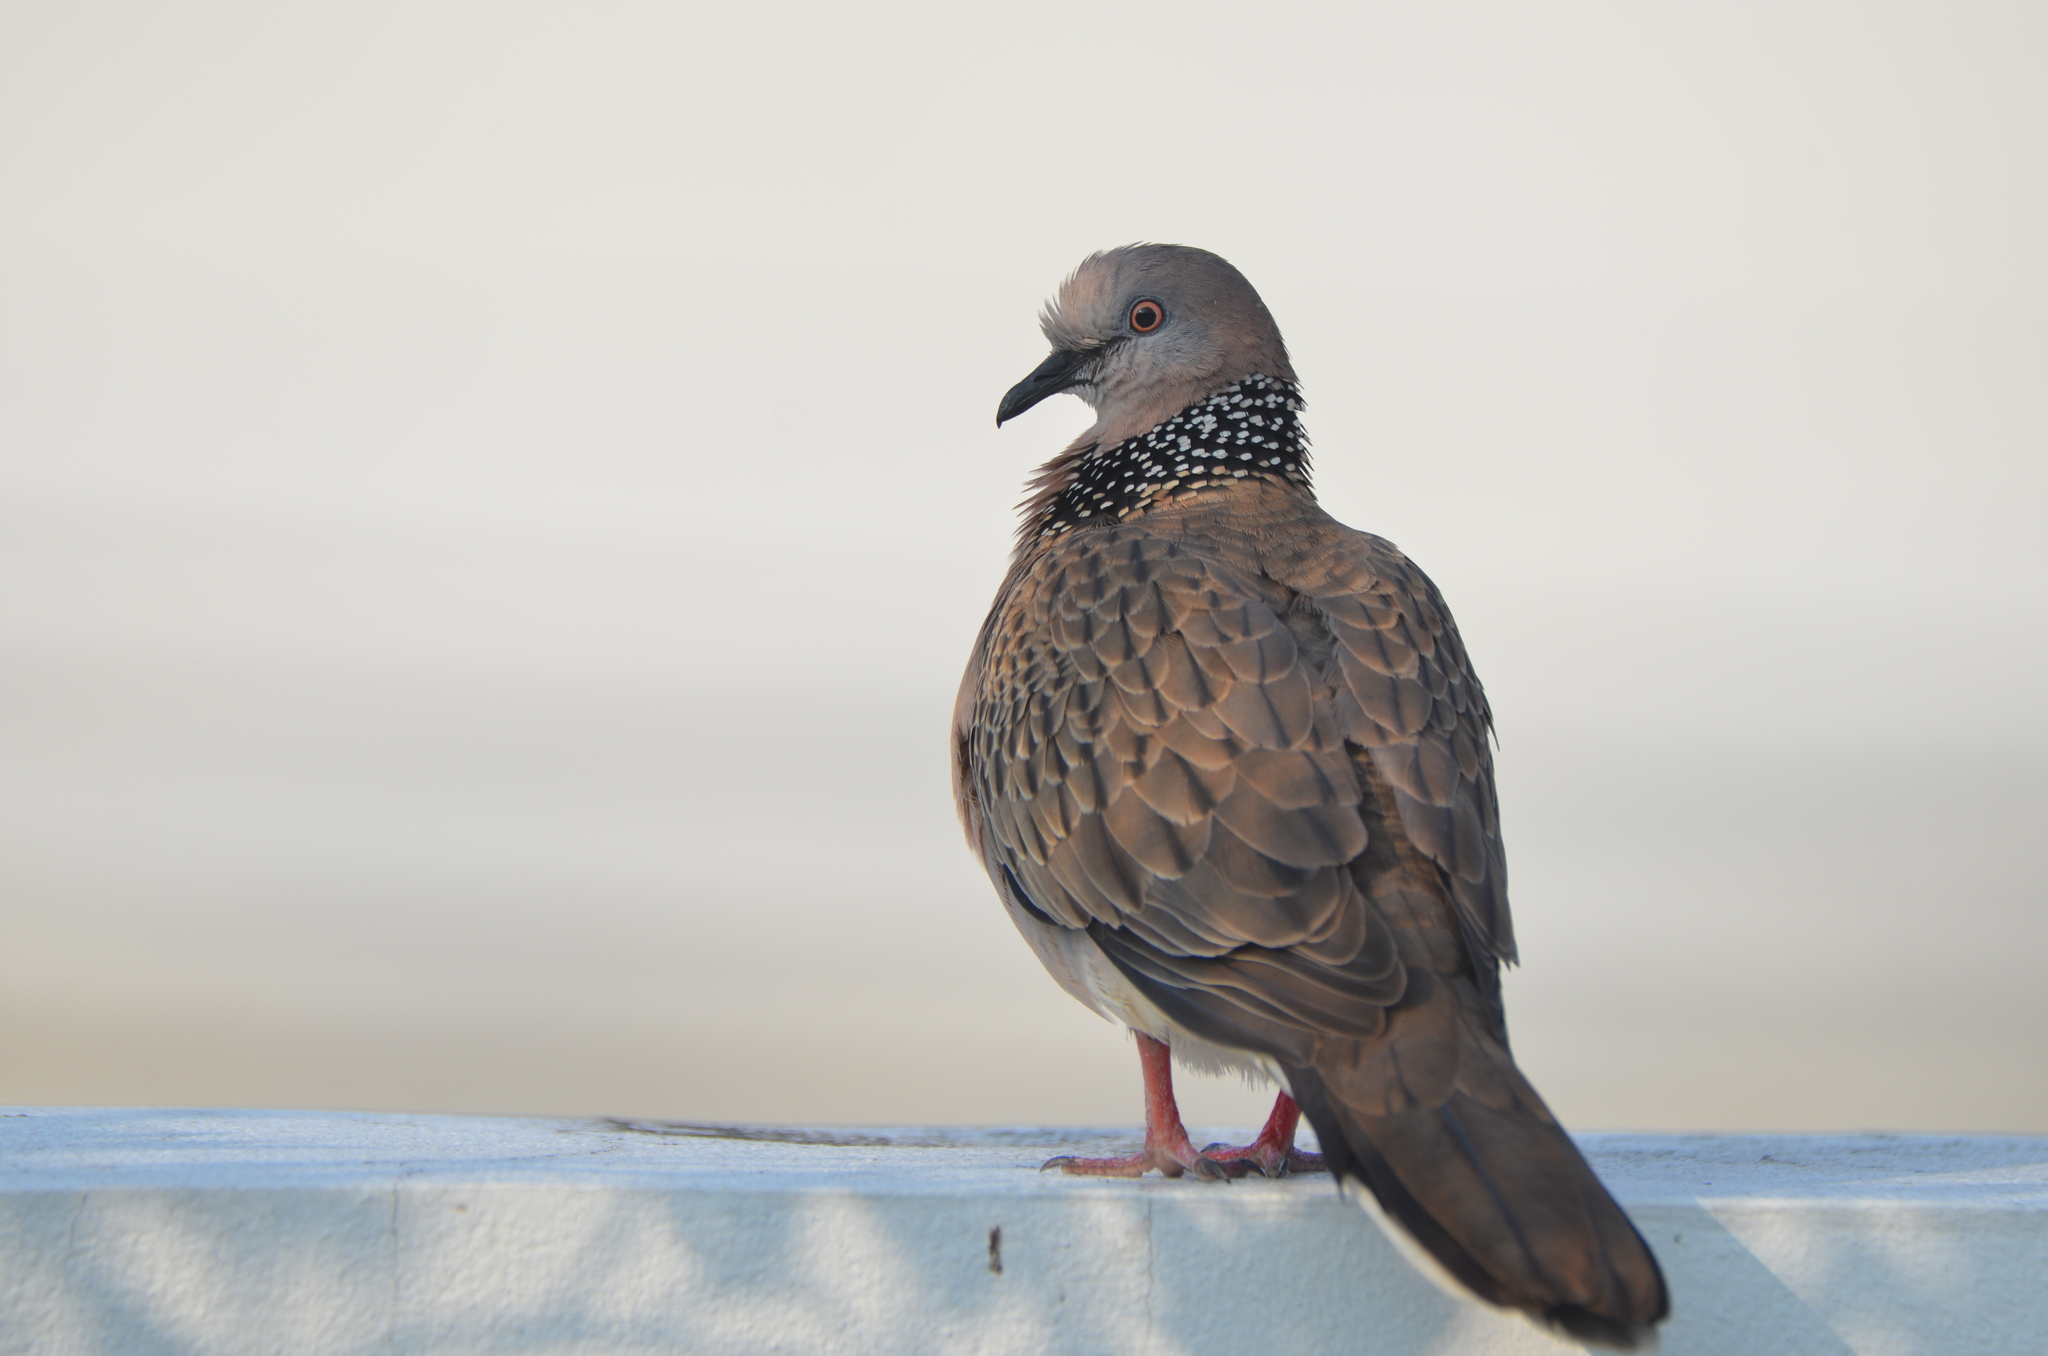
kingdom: Animalia
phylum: Chordata
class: Aves
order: Columbiformes
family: Columbidae
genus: Spilopelia
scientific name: Spilopelia chinensis
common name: Spotted dove
